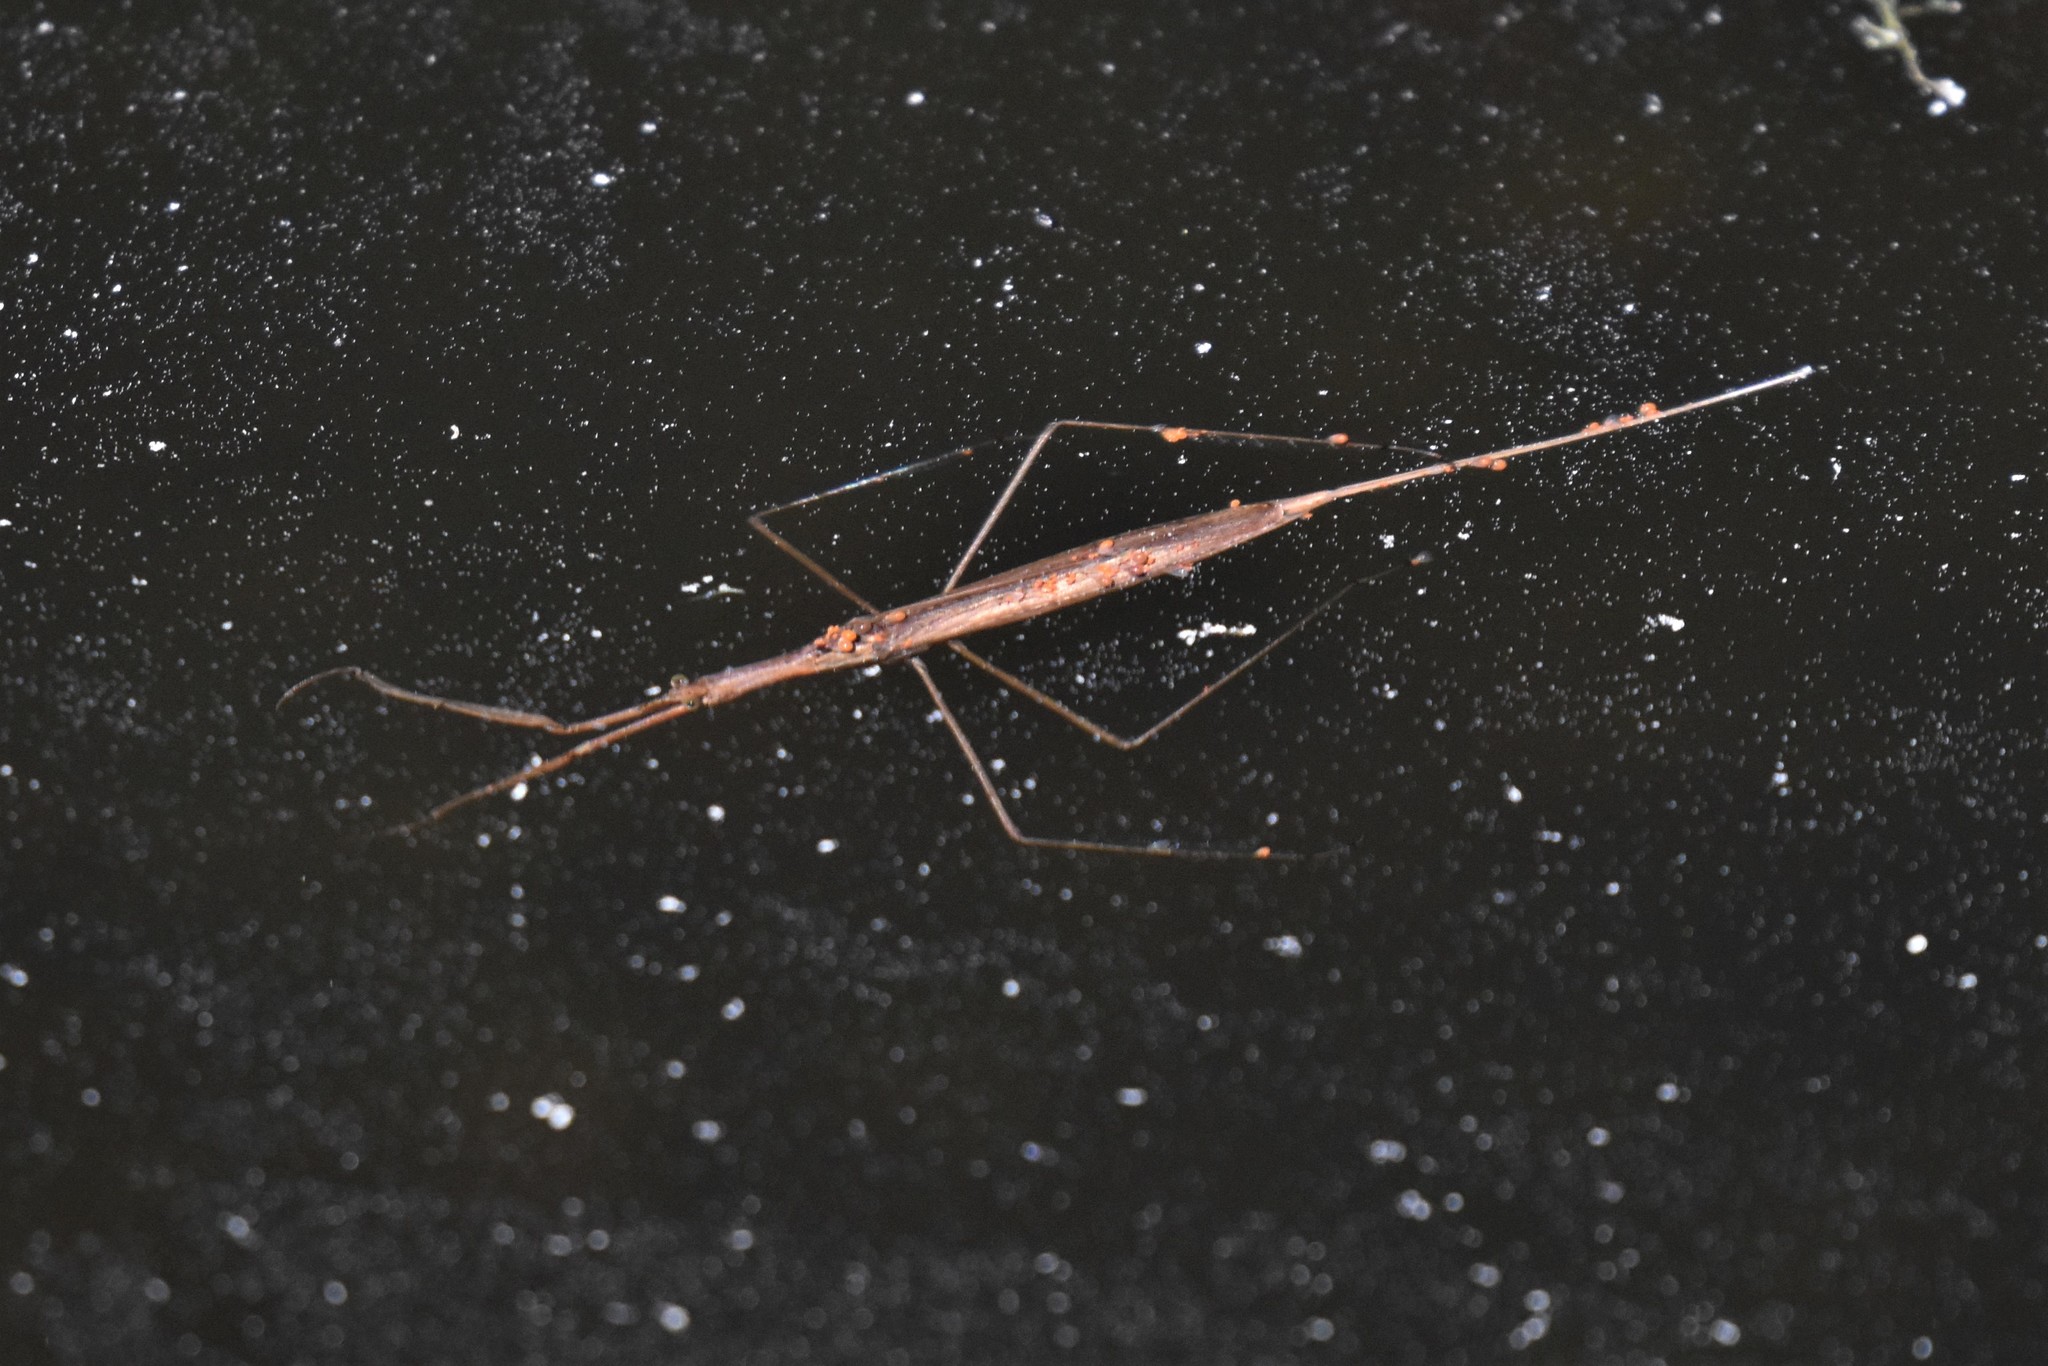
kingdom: Animalia
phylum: Arthropoda
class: Insecta
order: Hemiptera
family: Nepidae
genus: Ranatra
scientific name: Ranatra fusca
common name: Brown waterscorpion
